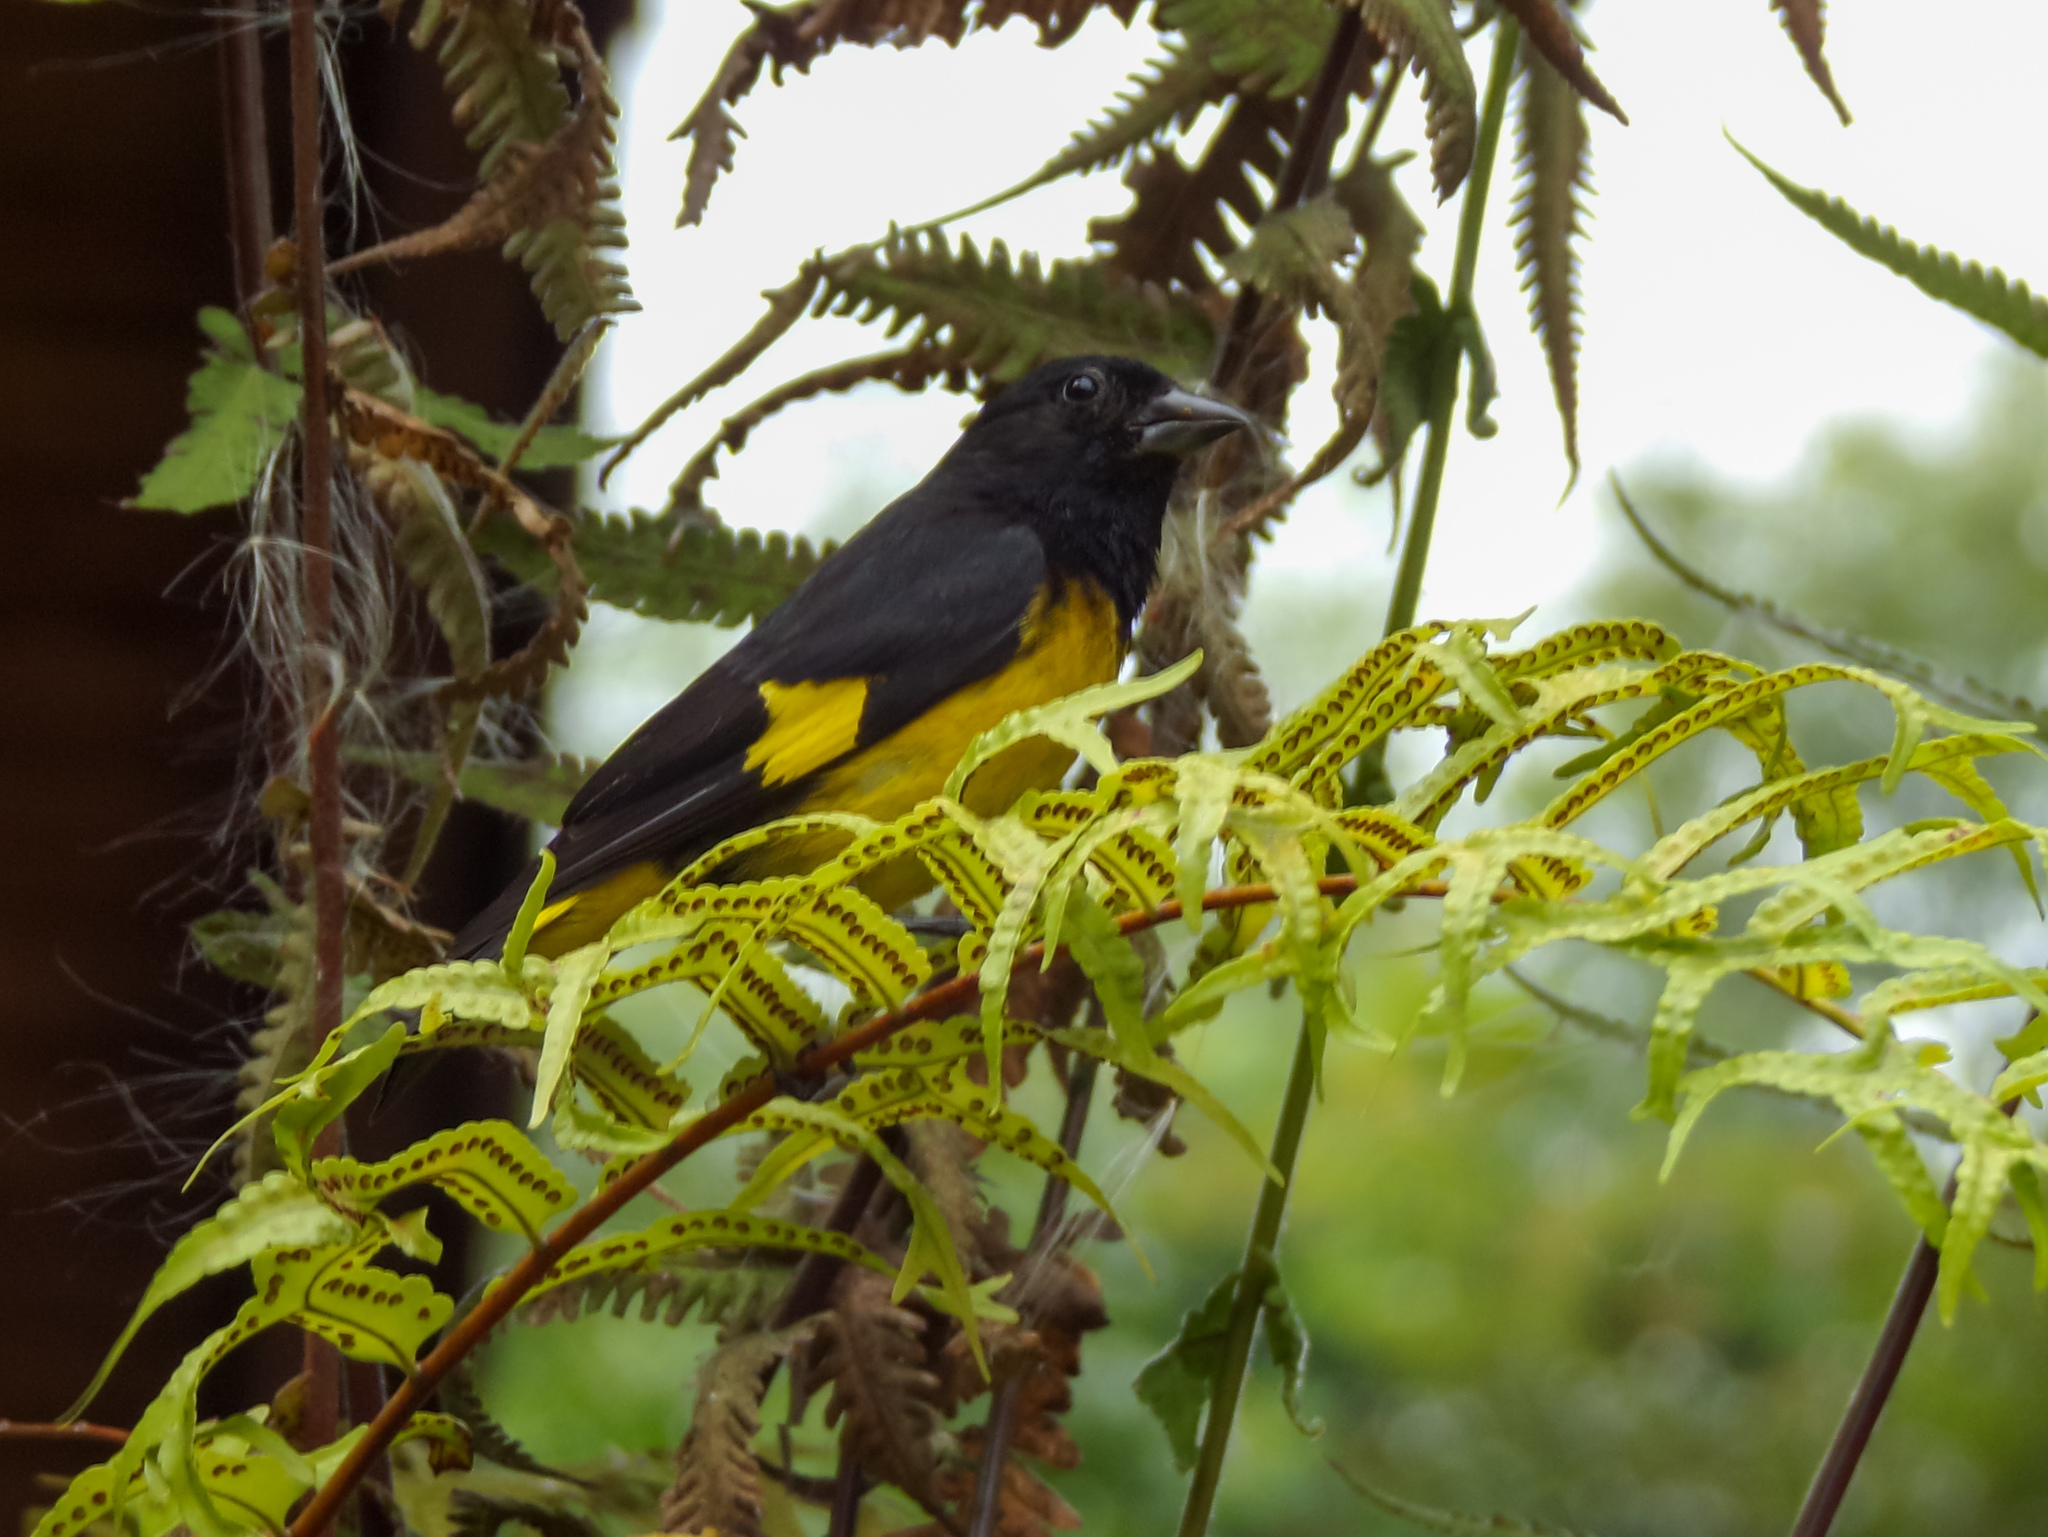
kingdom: Animalia
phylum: Chordata
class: Aves
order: Passeriformes
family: Fringillidae
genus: Spinus
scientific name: Spinus xanthogastrus
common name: Yellow-bellied siskin
